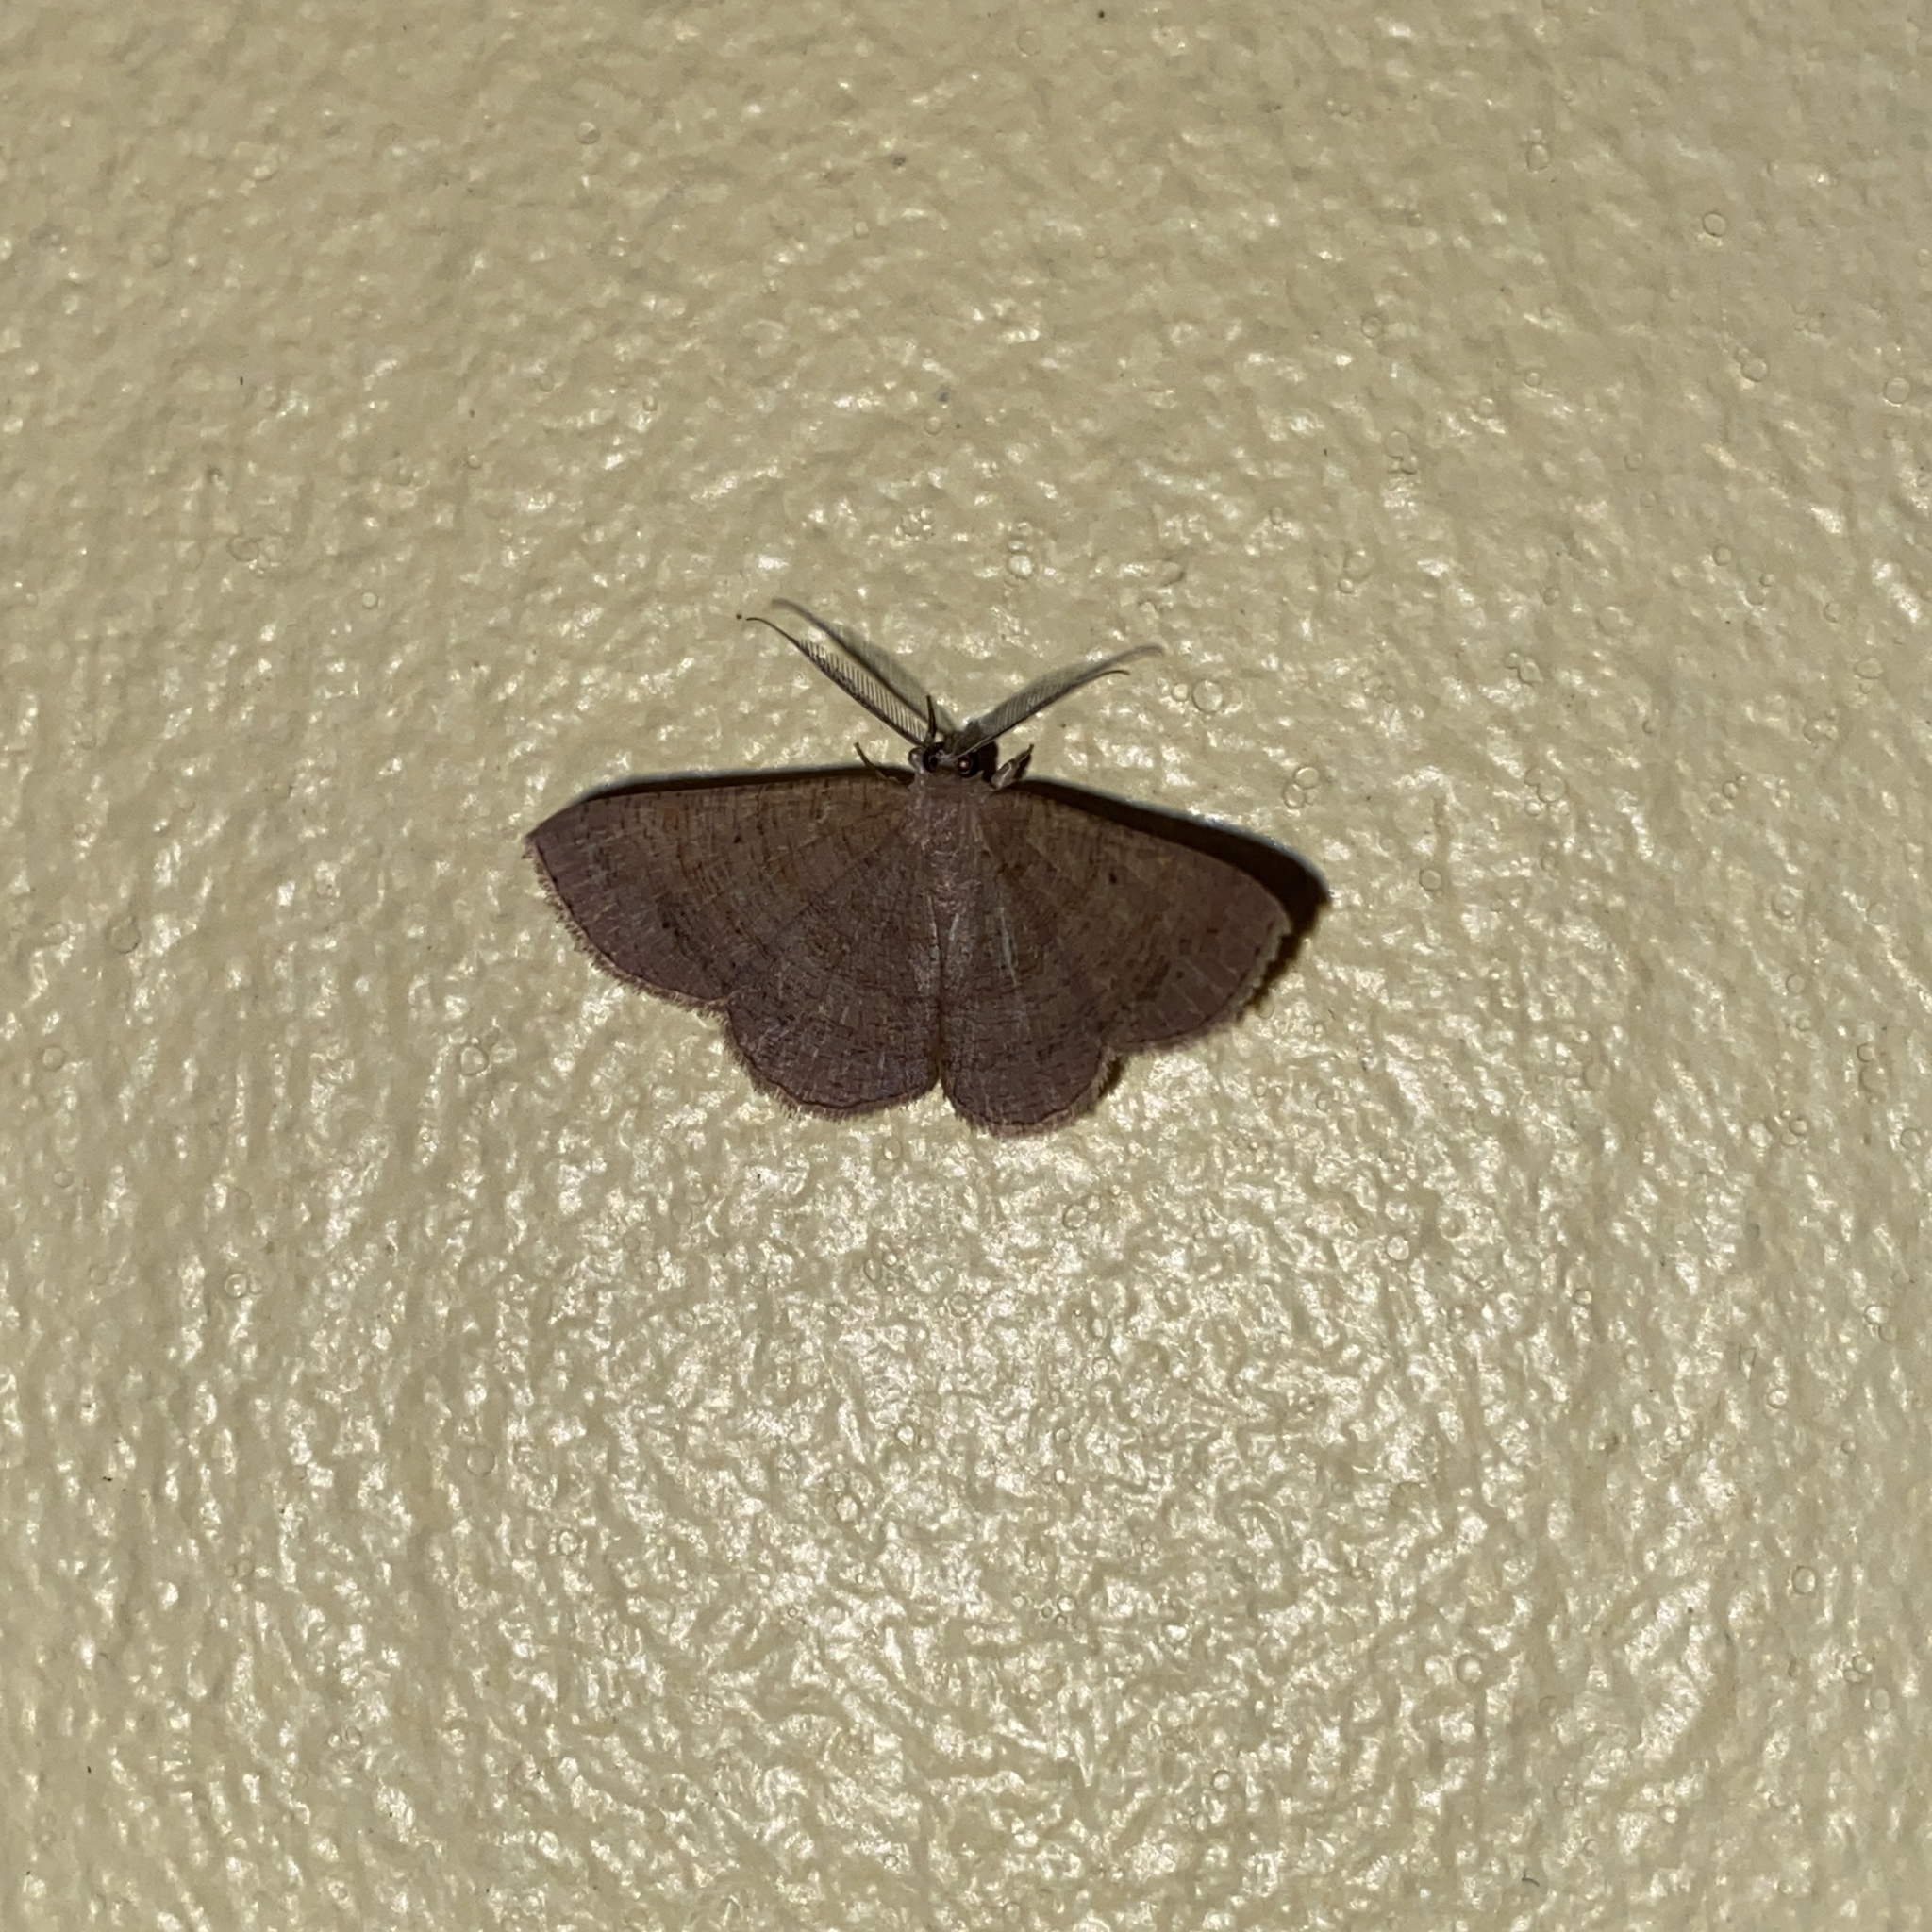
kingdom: Animalia
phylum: Arthropoda
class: Insecta
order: Lepidoptera
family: Geometridae
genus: Parilexia
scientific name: Parilexia nicetaria
